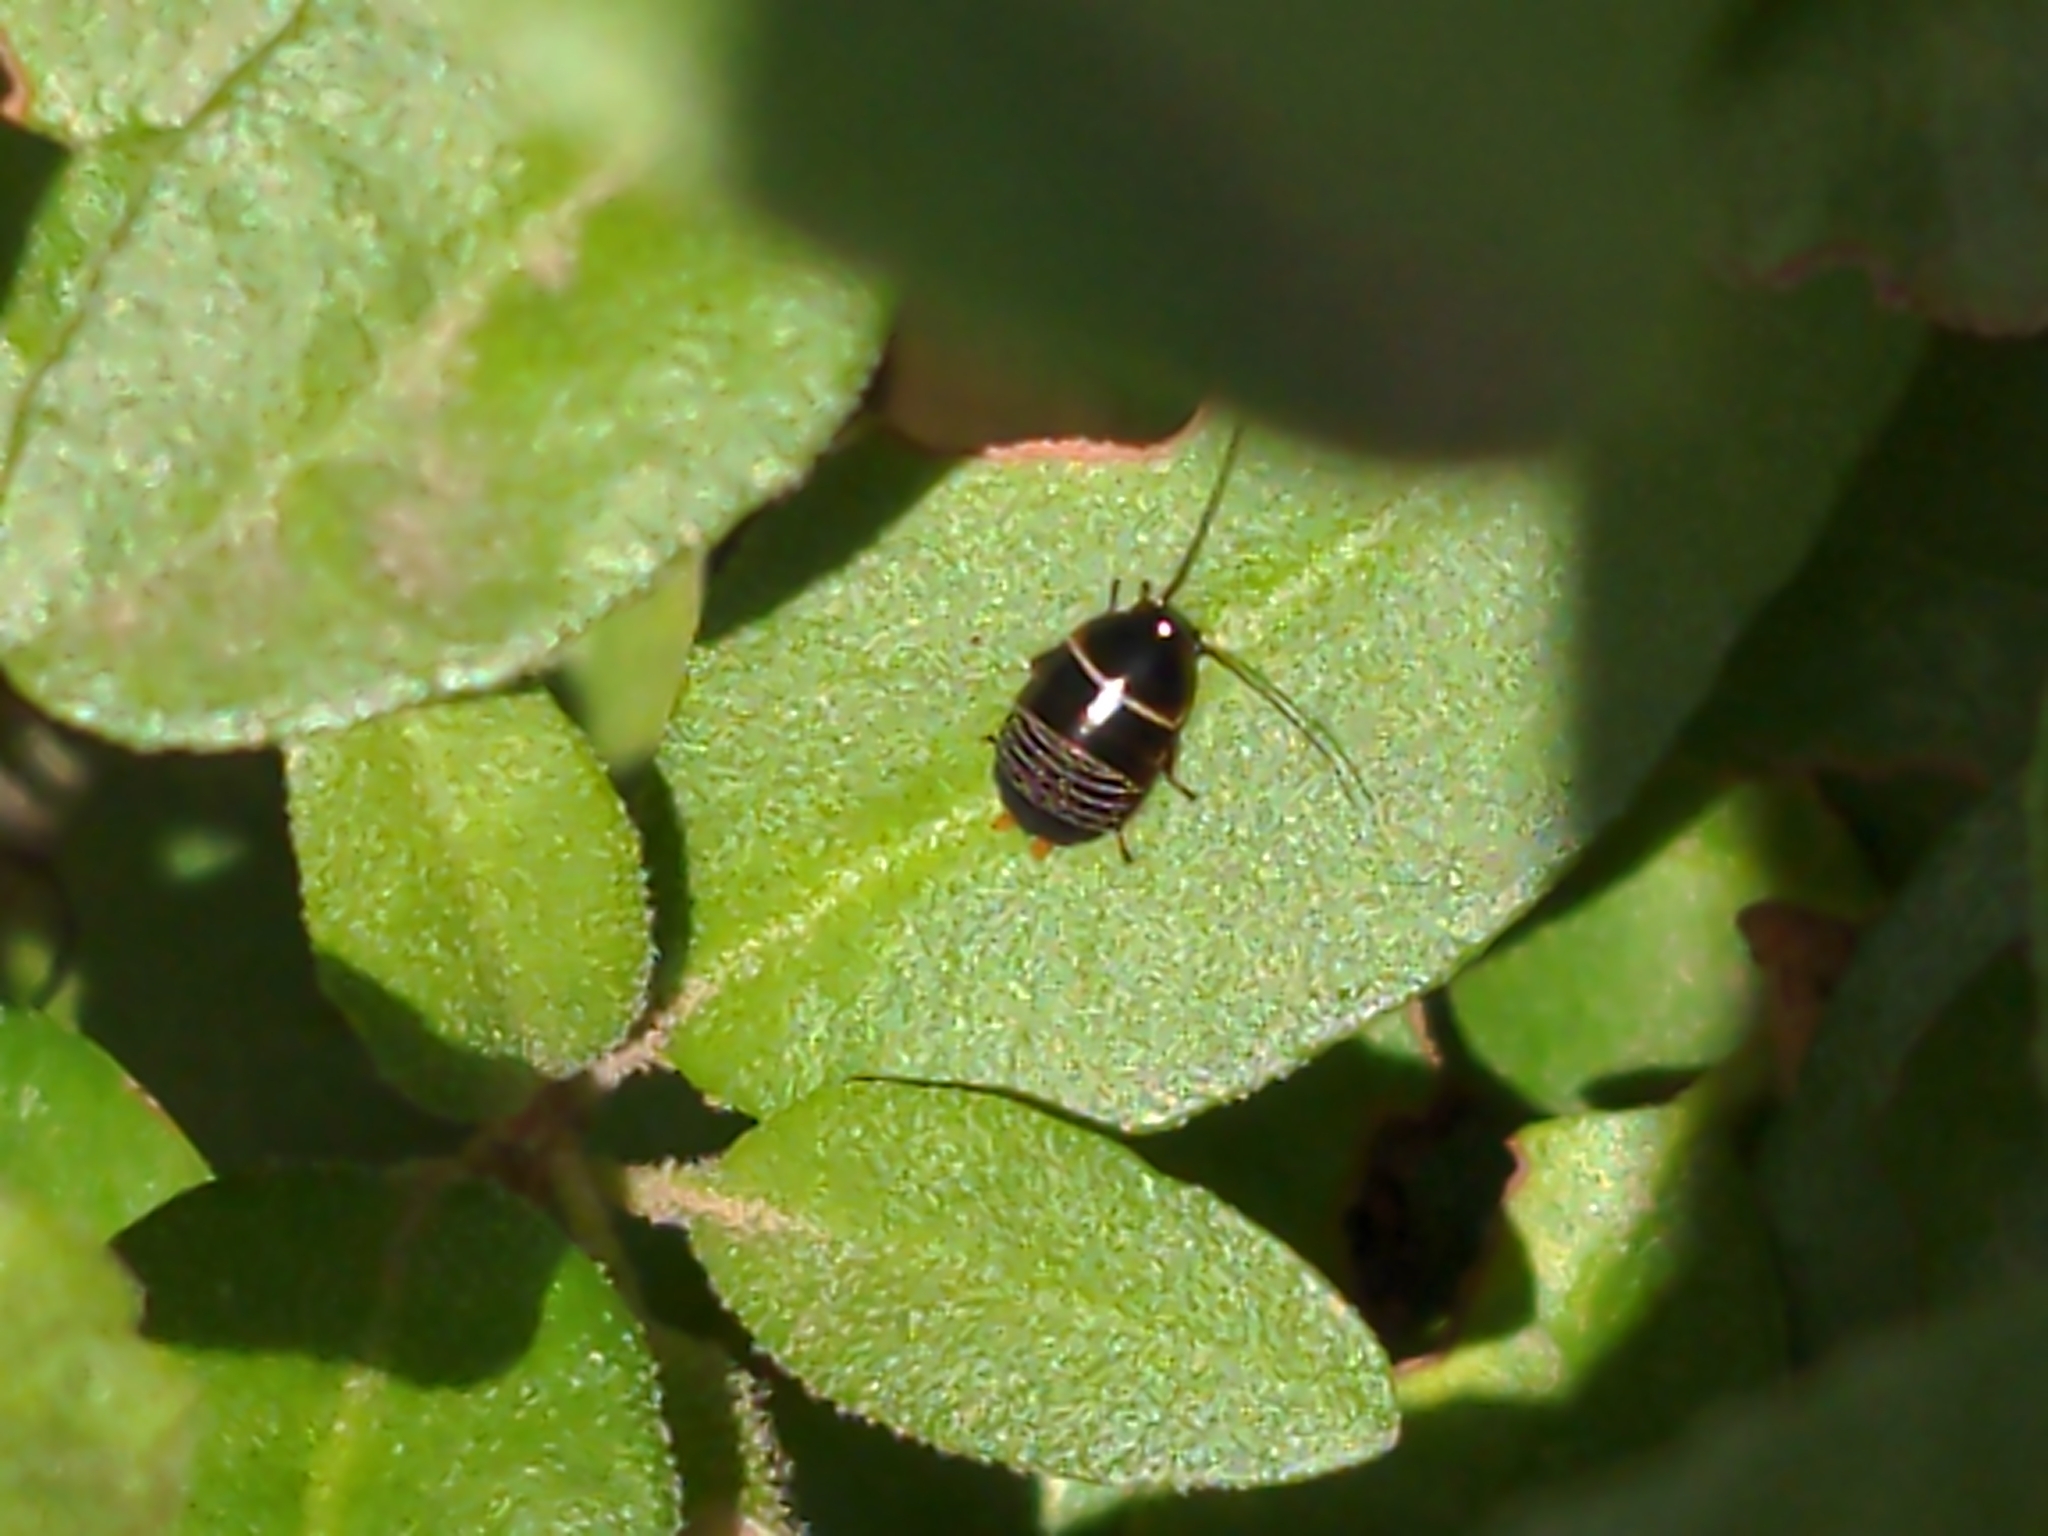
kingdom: Animalia
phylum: Arthropoda
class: Insecta
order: Coleoptera
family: Coccinellidae
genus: Harmonia
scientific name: Harmonia conformis
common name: Common spotted ladybird beetle
